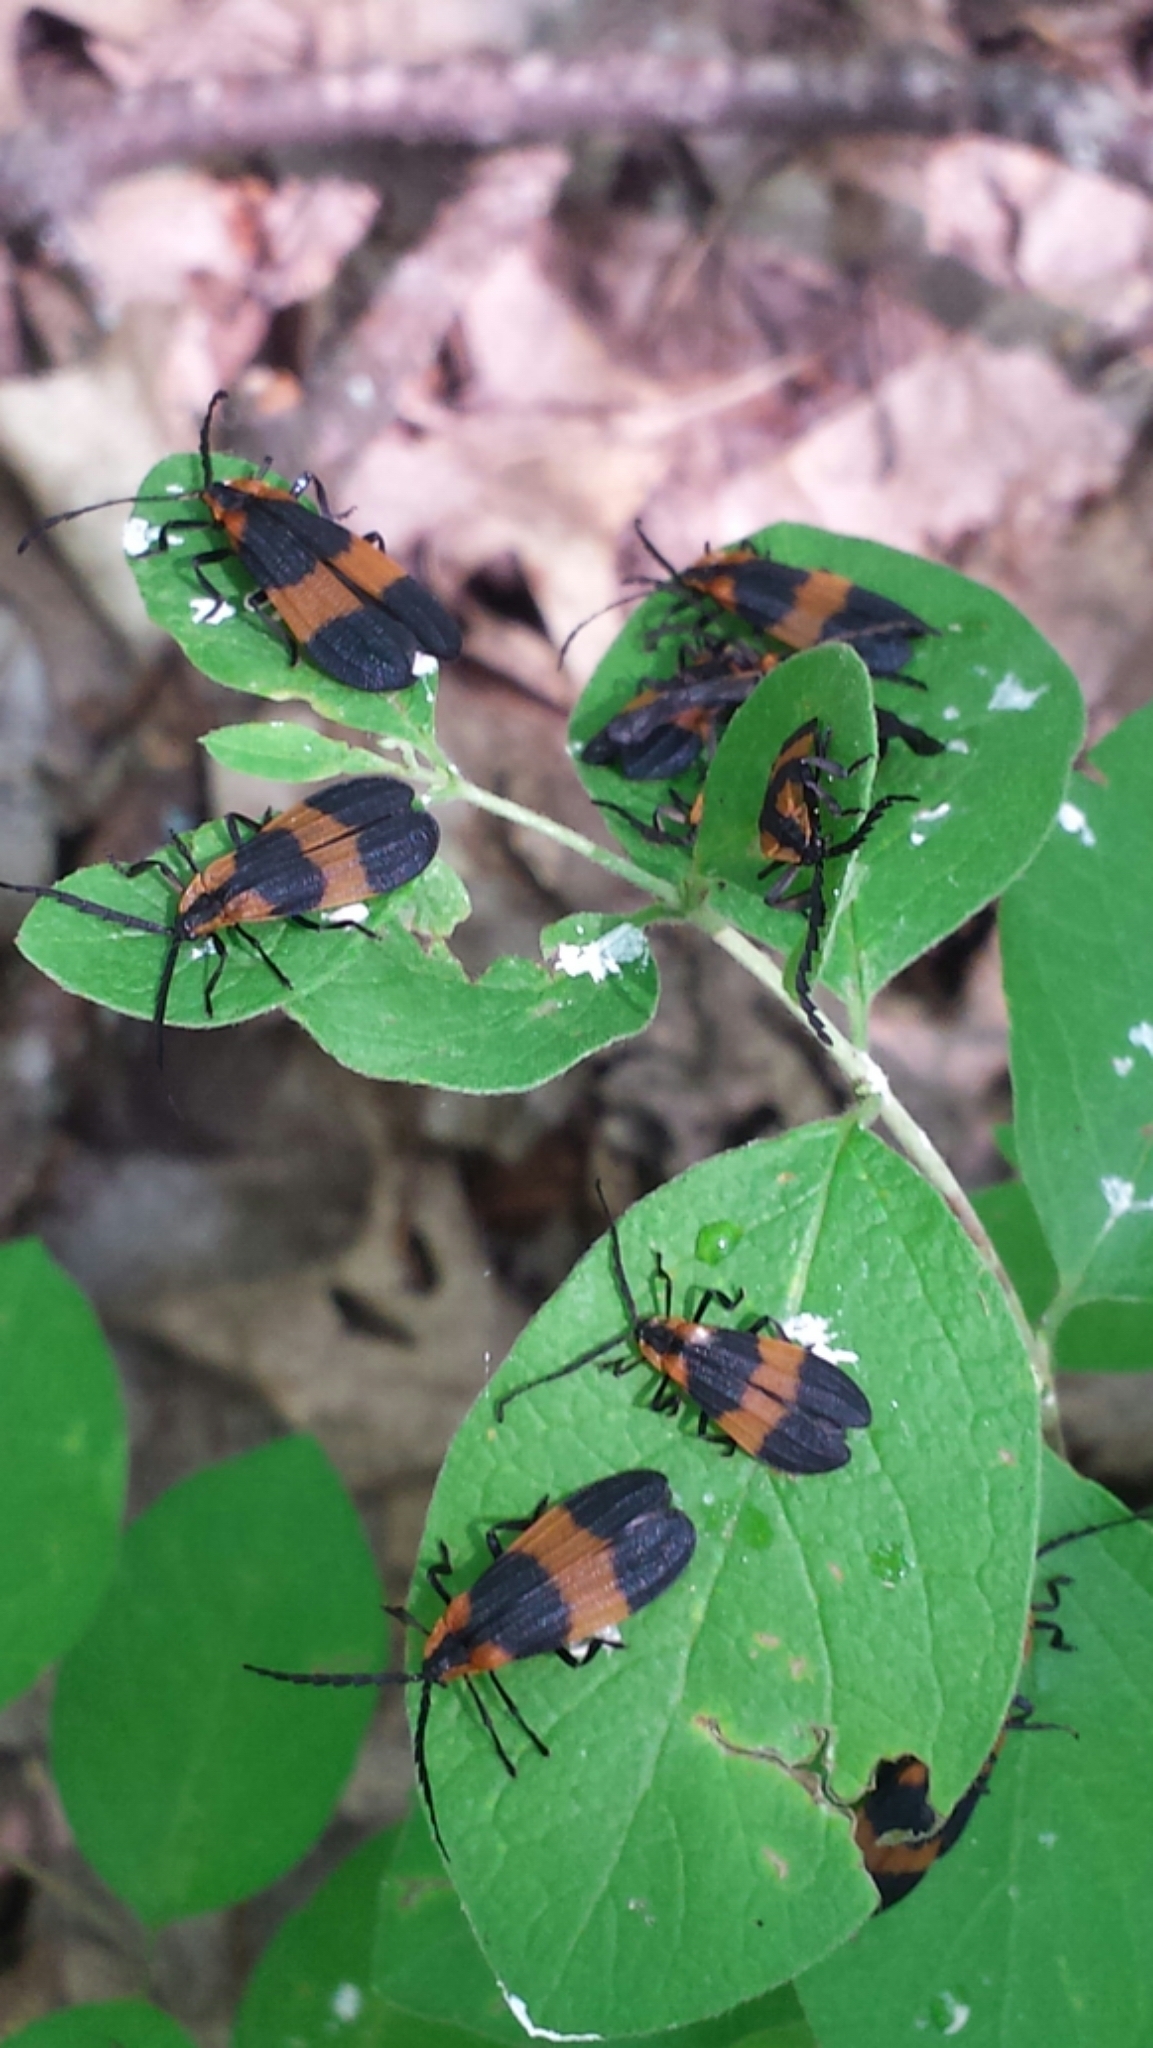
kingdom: Animalia
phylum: Arthropoda
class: Insecta
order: Coleoptera
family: Lycidae
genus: Calopteron
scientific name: Calopteron reticulatum
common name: Banded net-winged beetle
